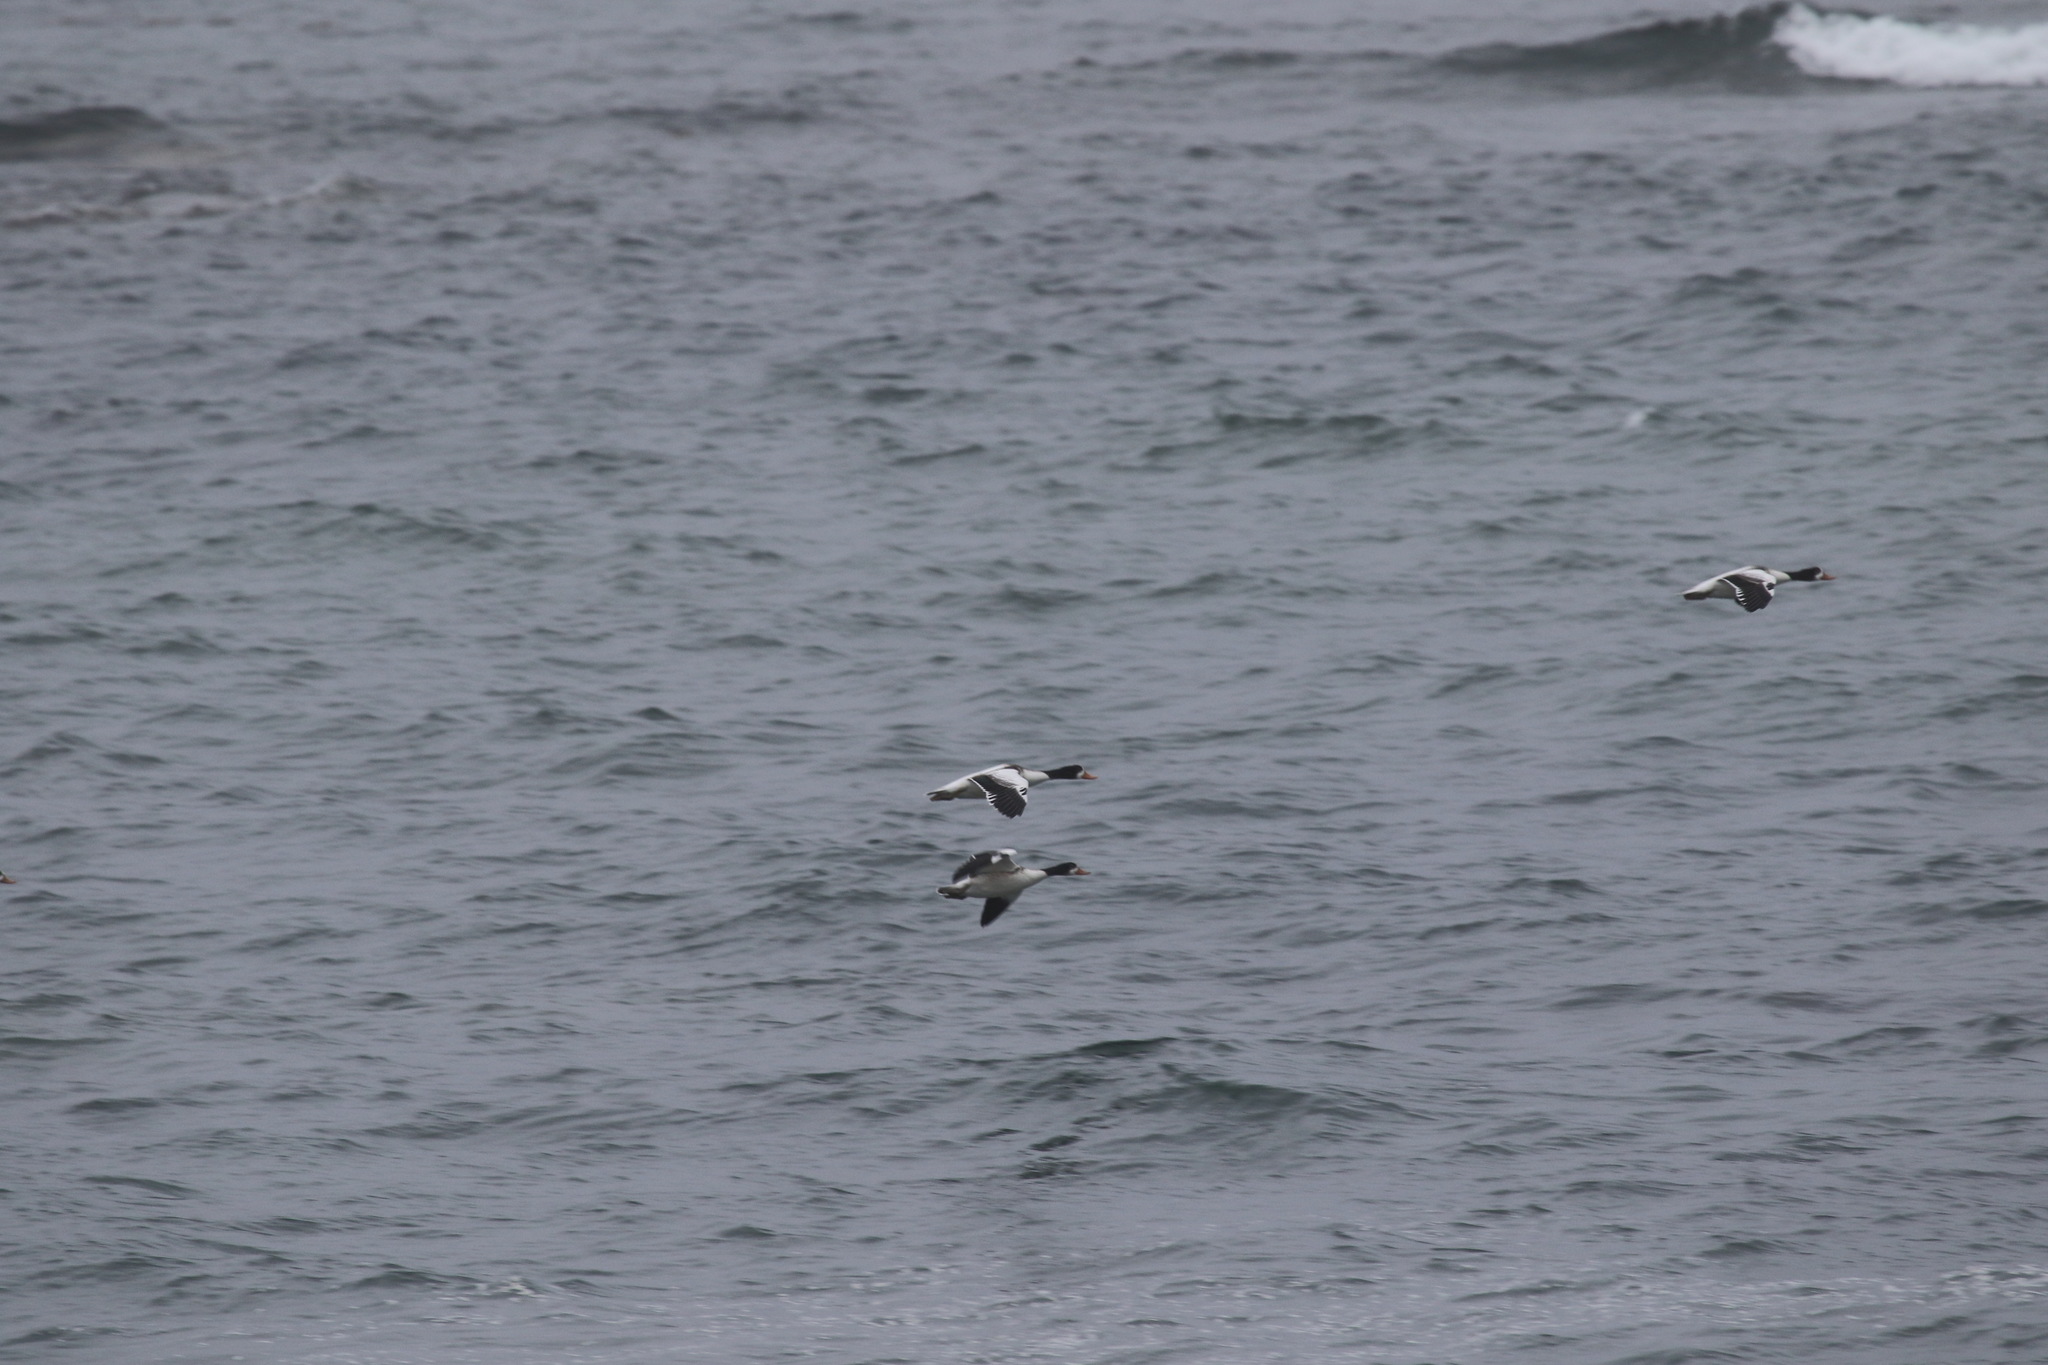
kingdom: Animalia
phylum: Chordata
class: Aves
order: Anseriformes
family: Anatidae
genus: Tadorna
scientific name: Tadorna tadorna
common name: Common shelduck
